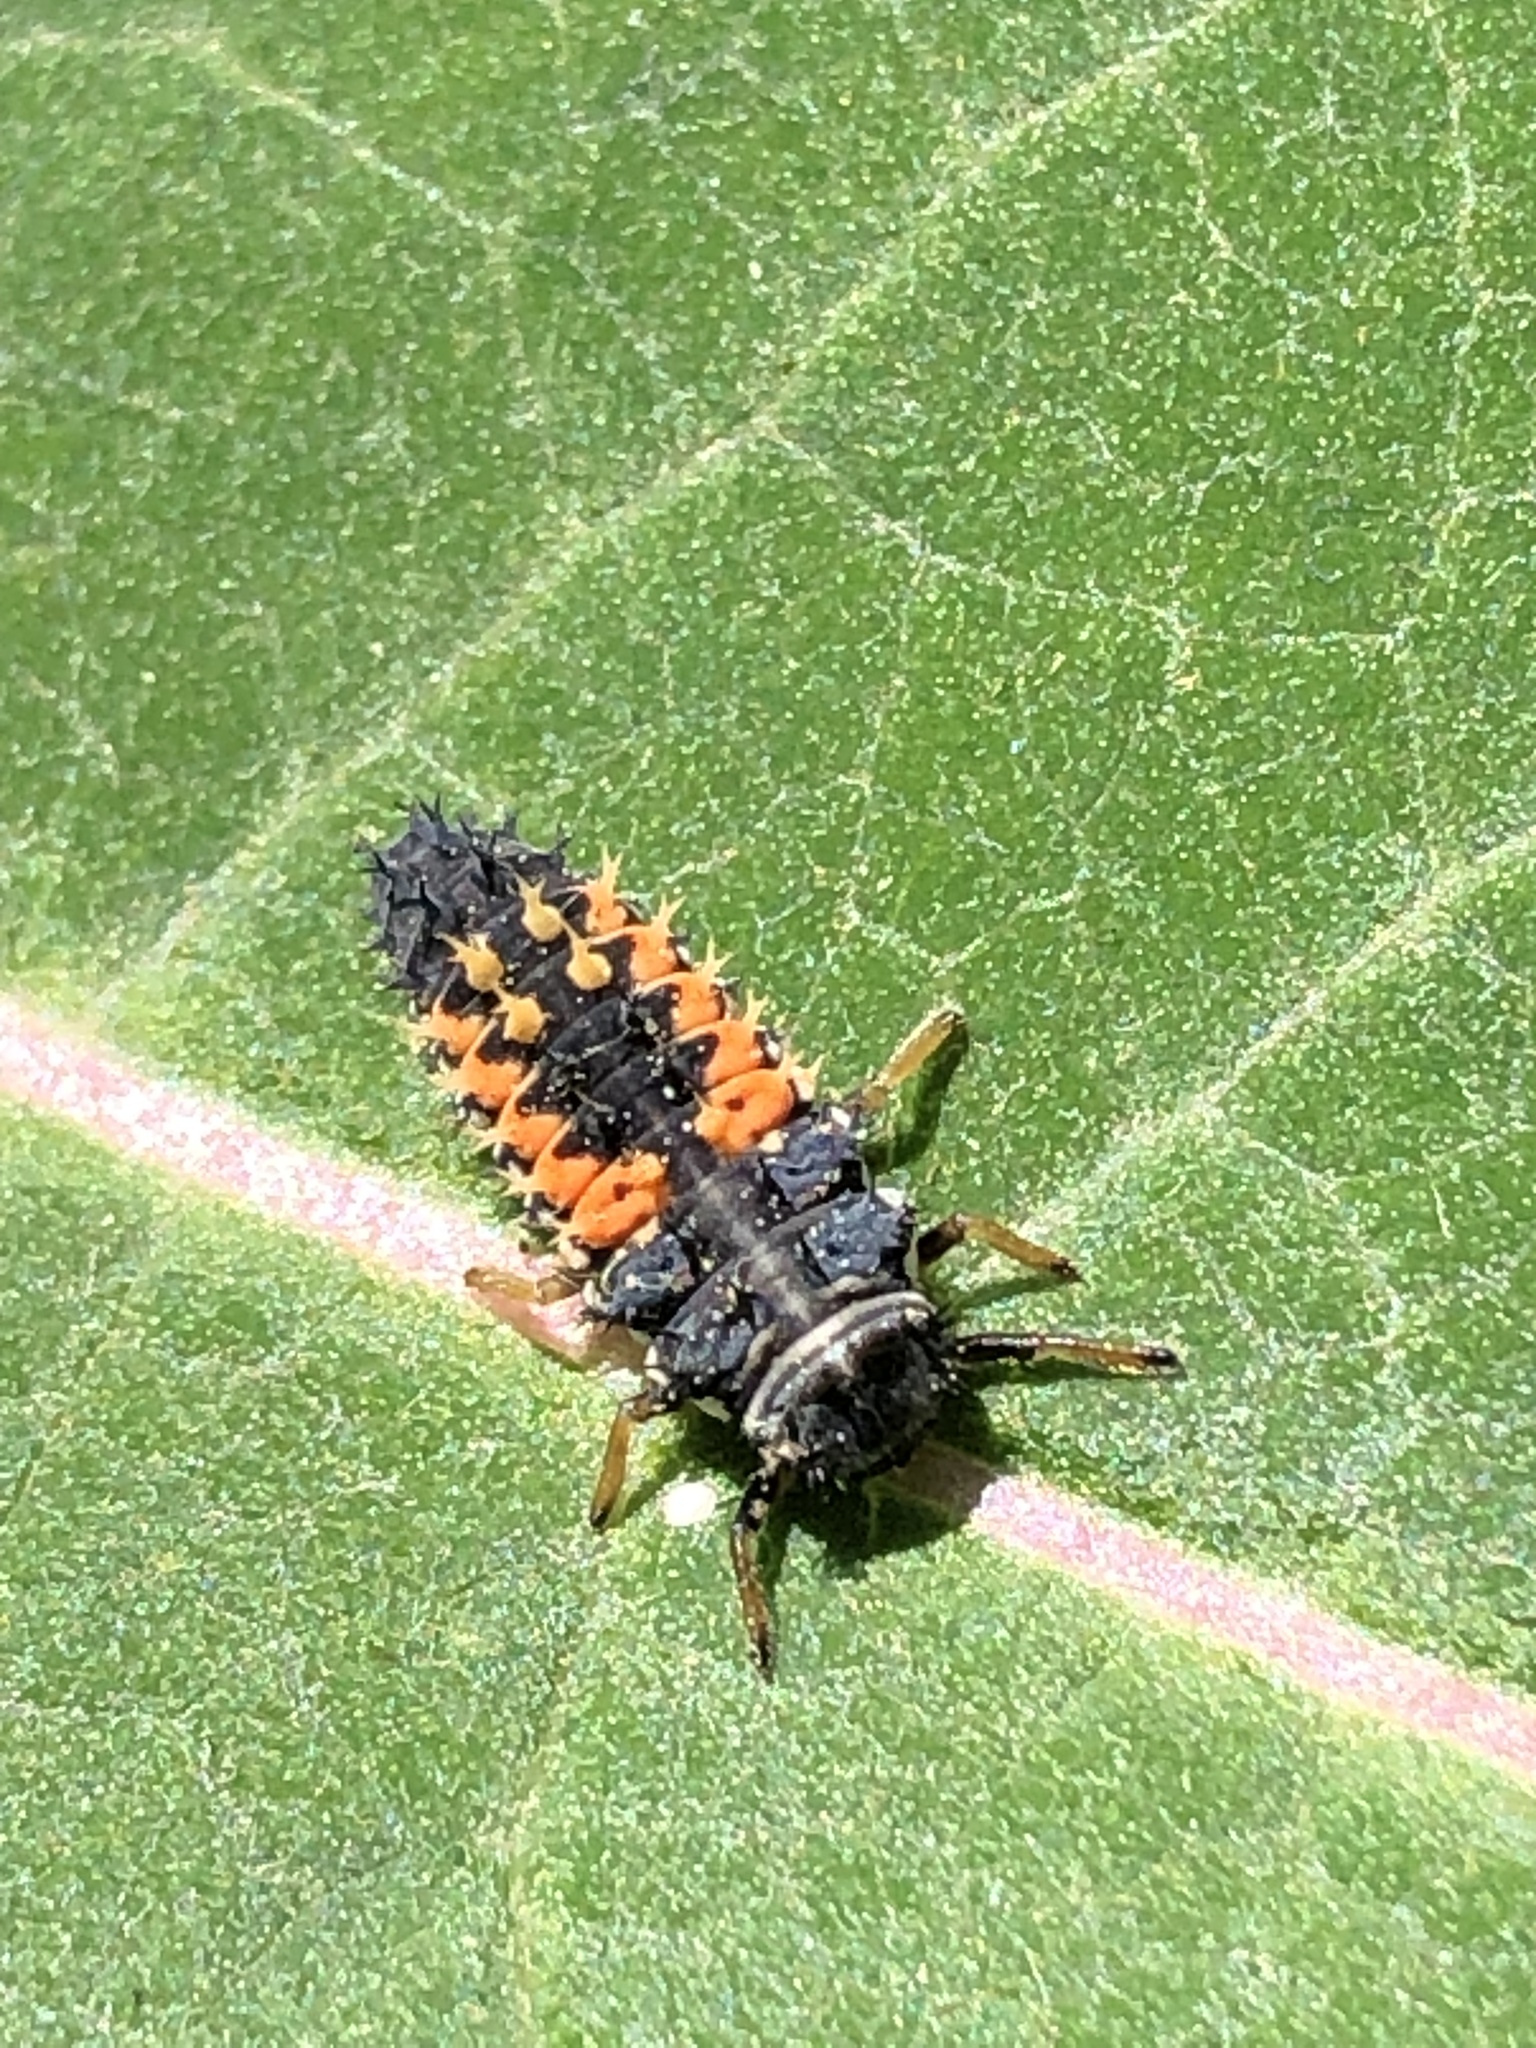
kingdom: Animalia
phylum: Arthropoda
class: Insecta
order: Coleoptera
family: Coccinellidae
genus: Harmonia
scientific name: Harmonia axyridis
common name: Harlequin ladybird
